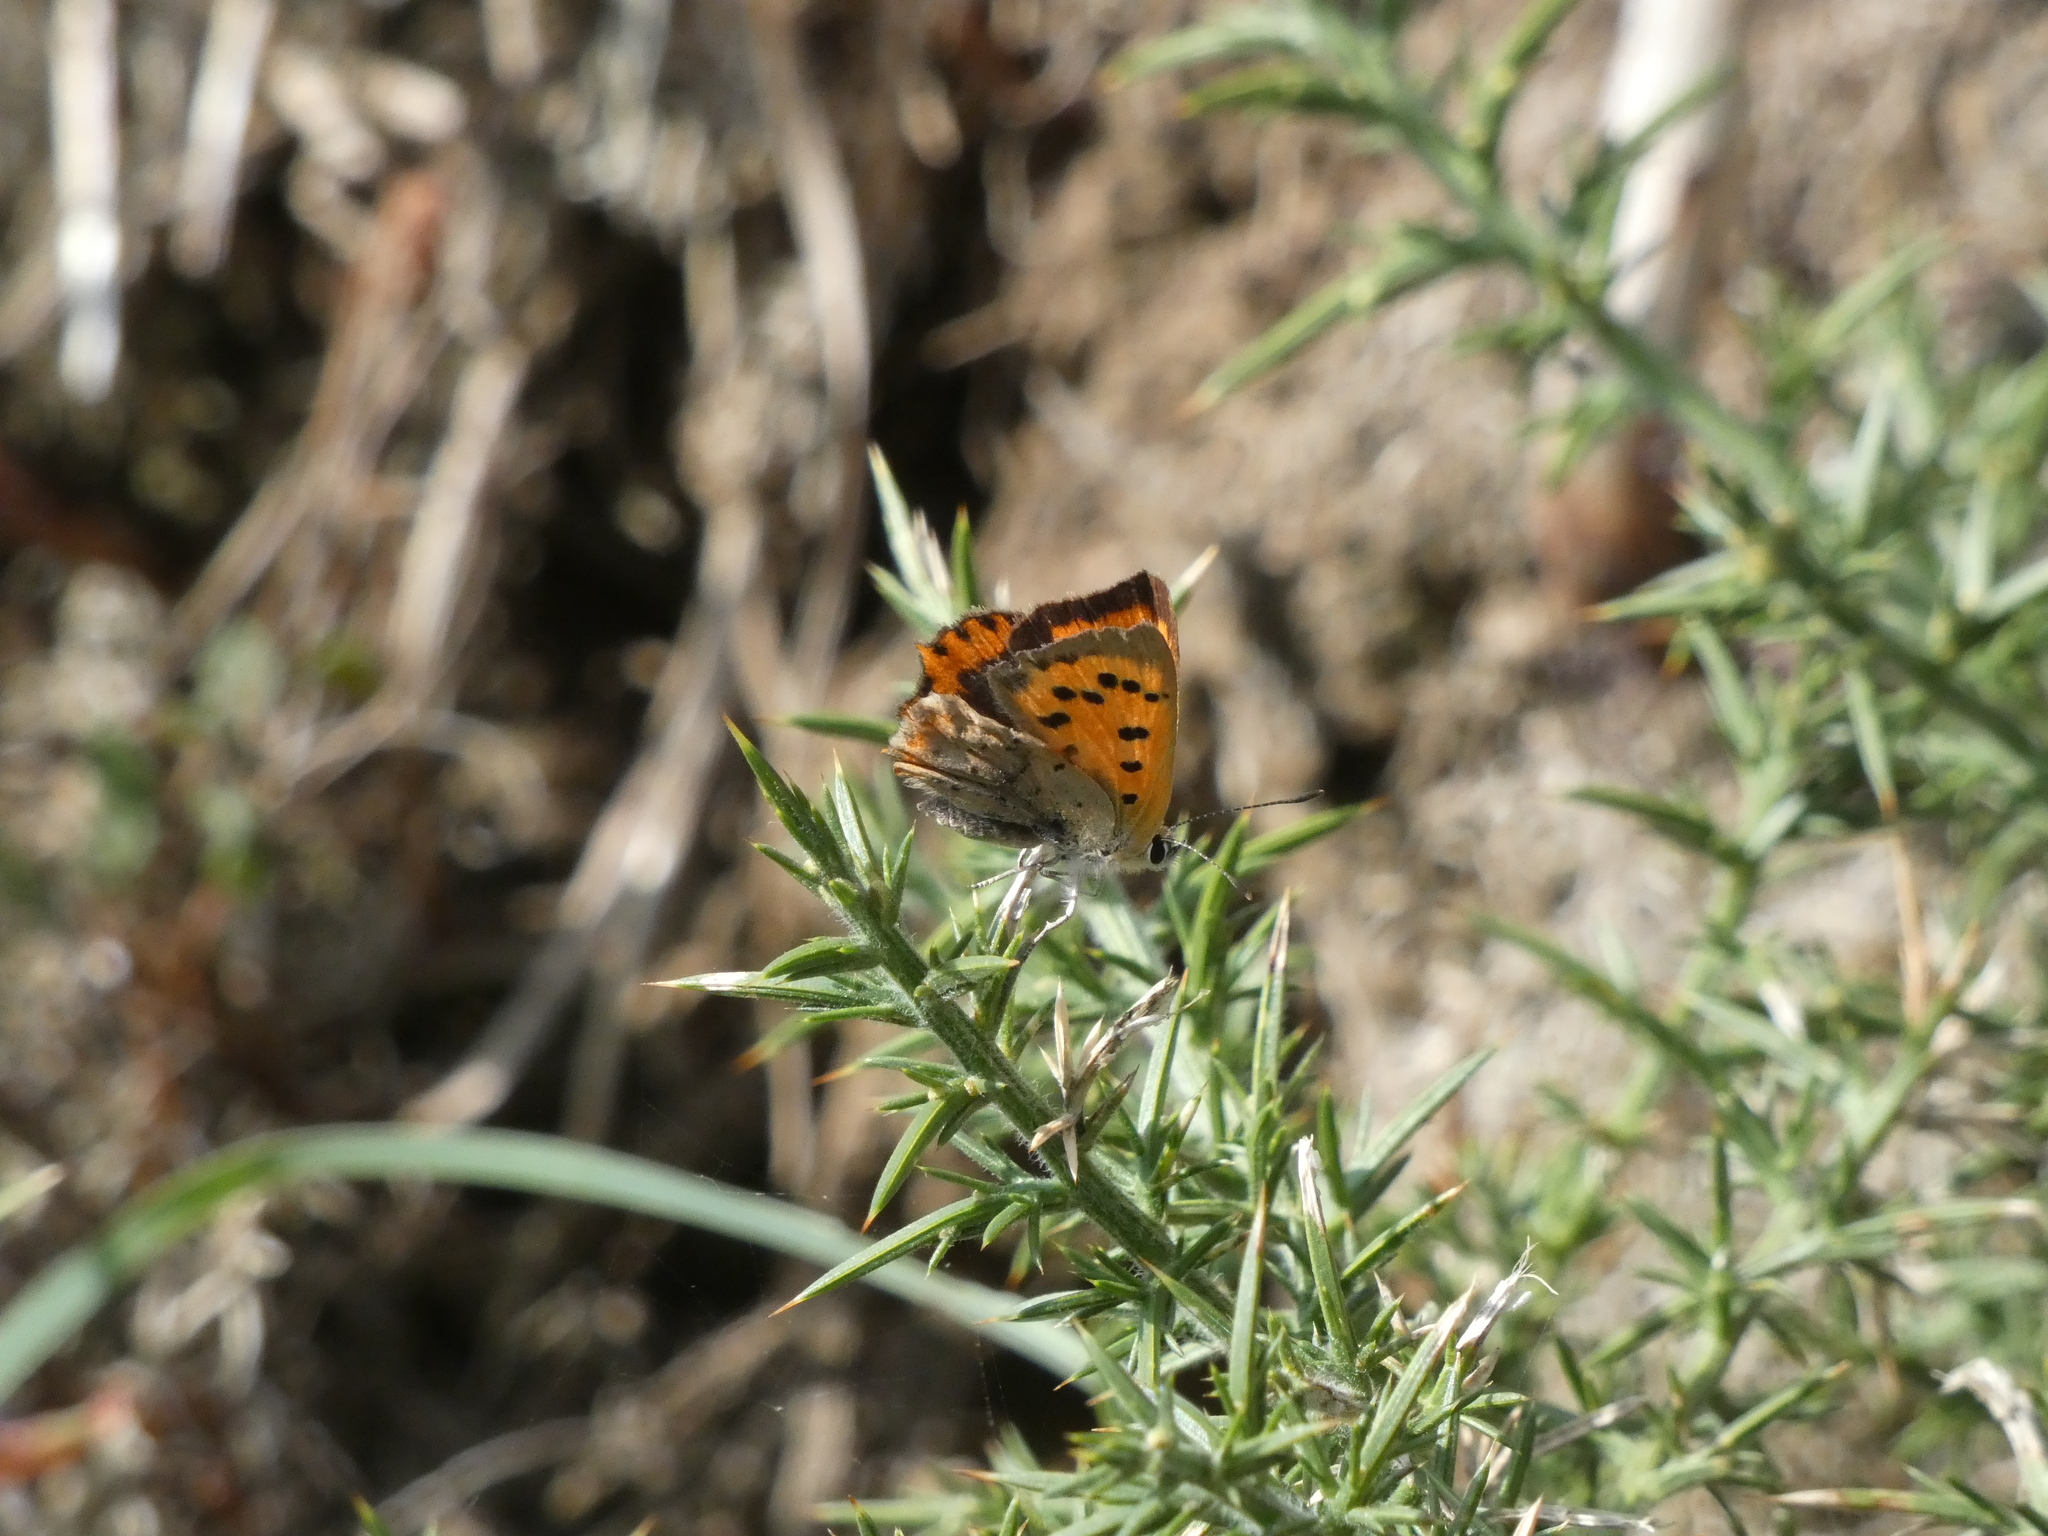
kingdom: Animalia
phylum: Arthropoda
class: Insecta
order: Lepidoptera
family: Lycaenidae
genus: Lycaena
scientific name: Lycaena phlaeas
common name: Small copper
